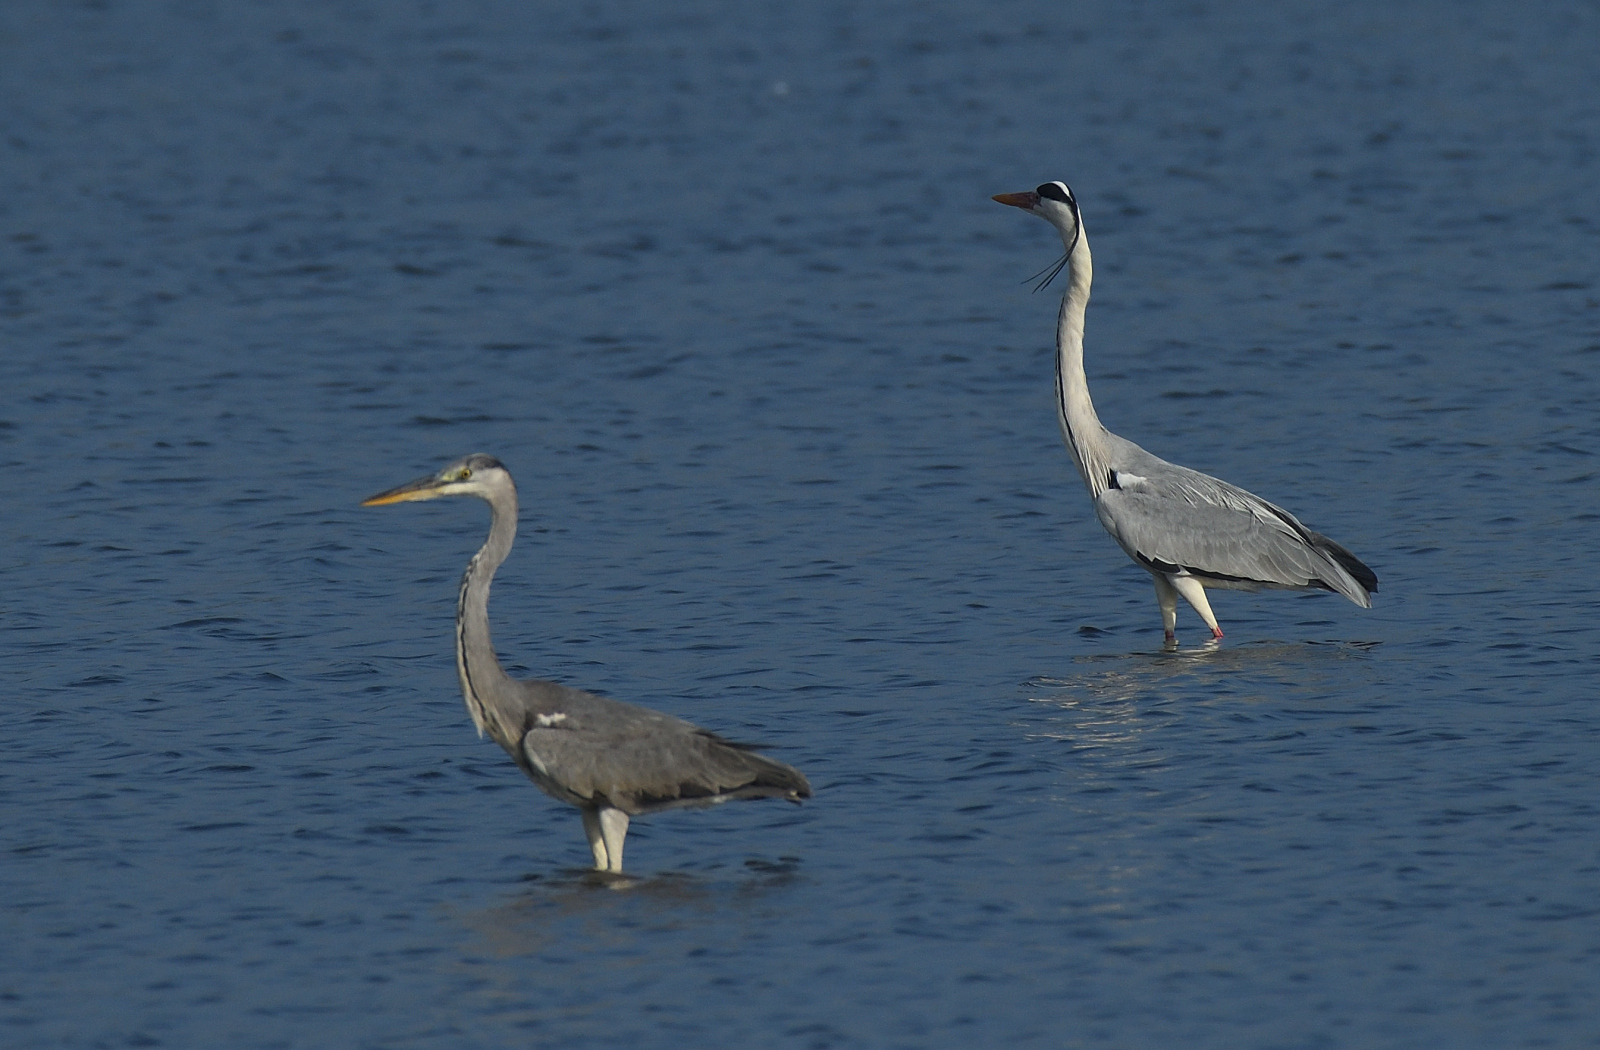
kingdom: Animalia
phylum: Chordata
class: Aves
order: Pelecaniformes
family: Ardeidae
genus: Ardea
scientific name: Ardea cinerea
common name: Grey heron
